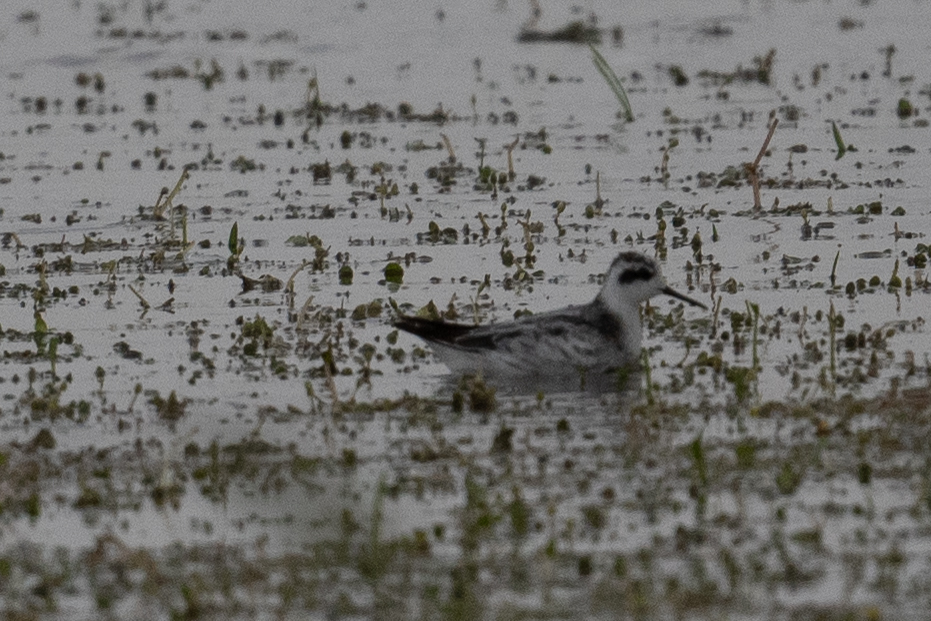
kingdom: Animalia
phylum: Chordata
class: Aves
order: Charadriiformes
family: Scolopacidae
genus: Phalaropus
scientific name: Phalaropus lobatus
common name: Red-necked phalarope
